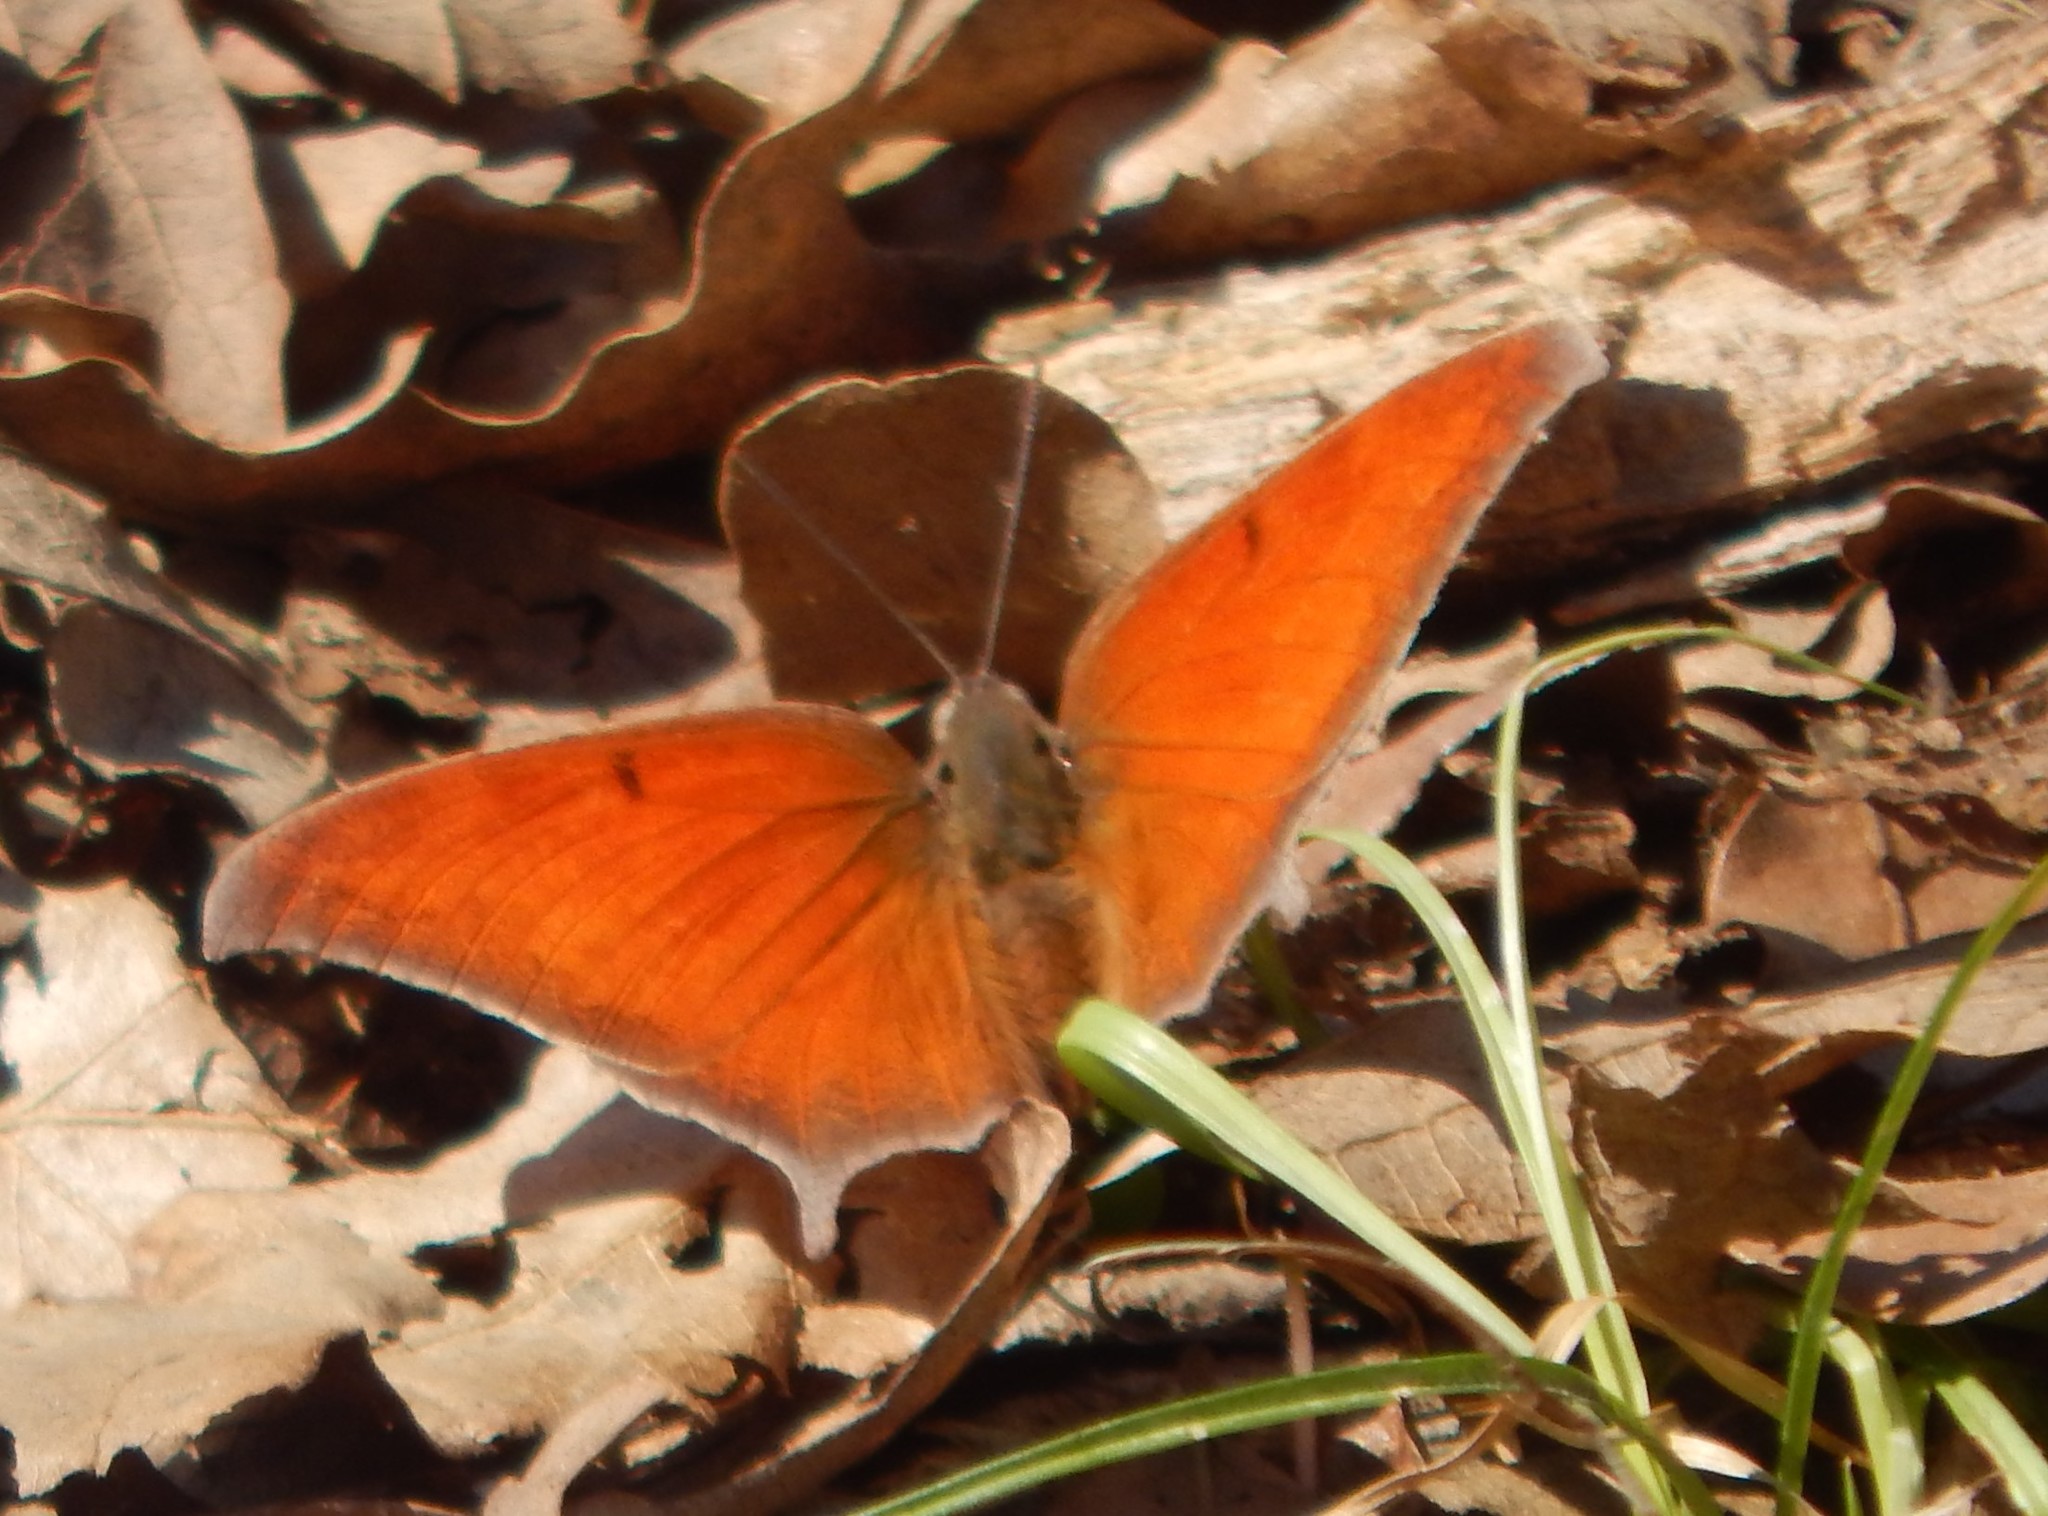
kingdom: Animalia
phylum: Arthropoda
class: Insecta
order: Lepidoptera
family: Nymphalidae
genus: Anaea
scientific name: Anaea andria
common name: Goatweed leafwing
